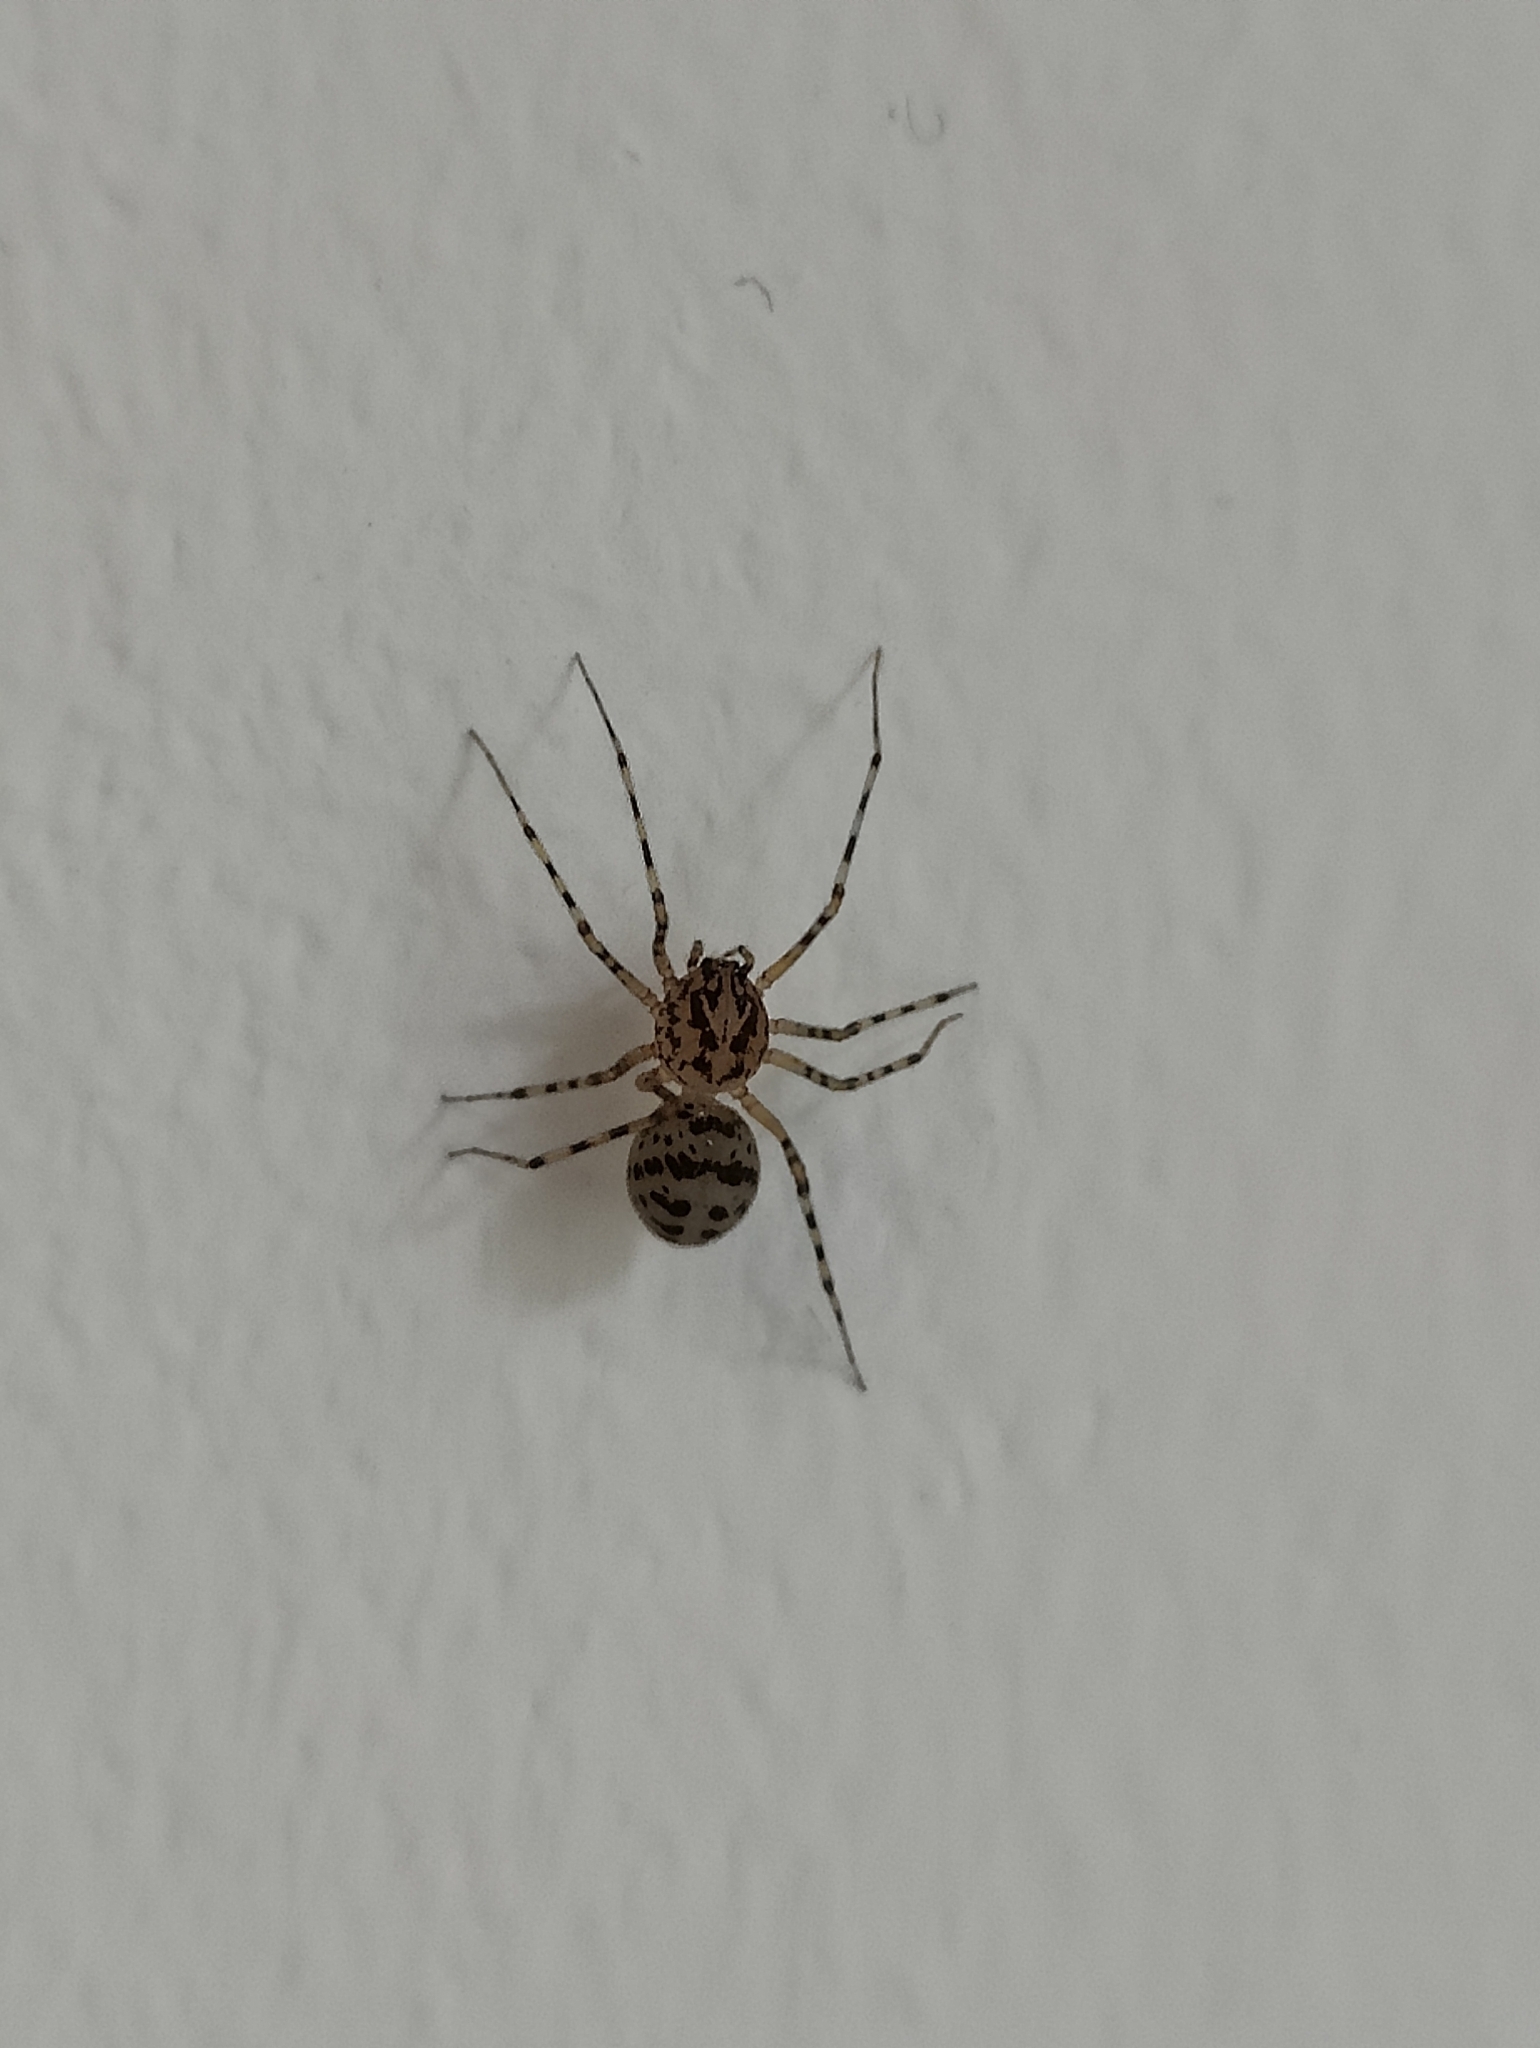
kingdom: Animalia
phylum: Arthropoda
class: Arachnida
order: Araneae
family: Scytodidae
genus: Scytodes
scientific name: Scytodes thoracica
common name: Spitting spider
